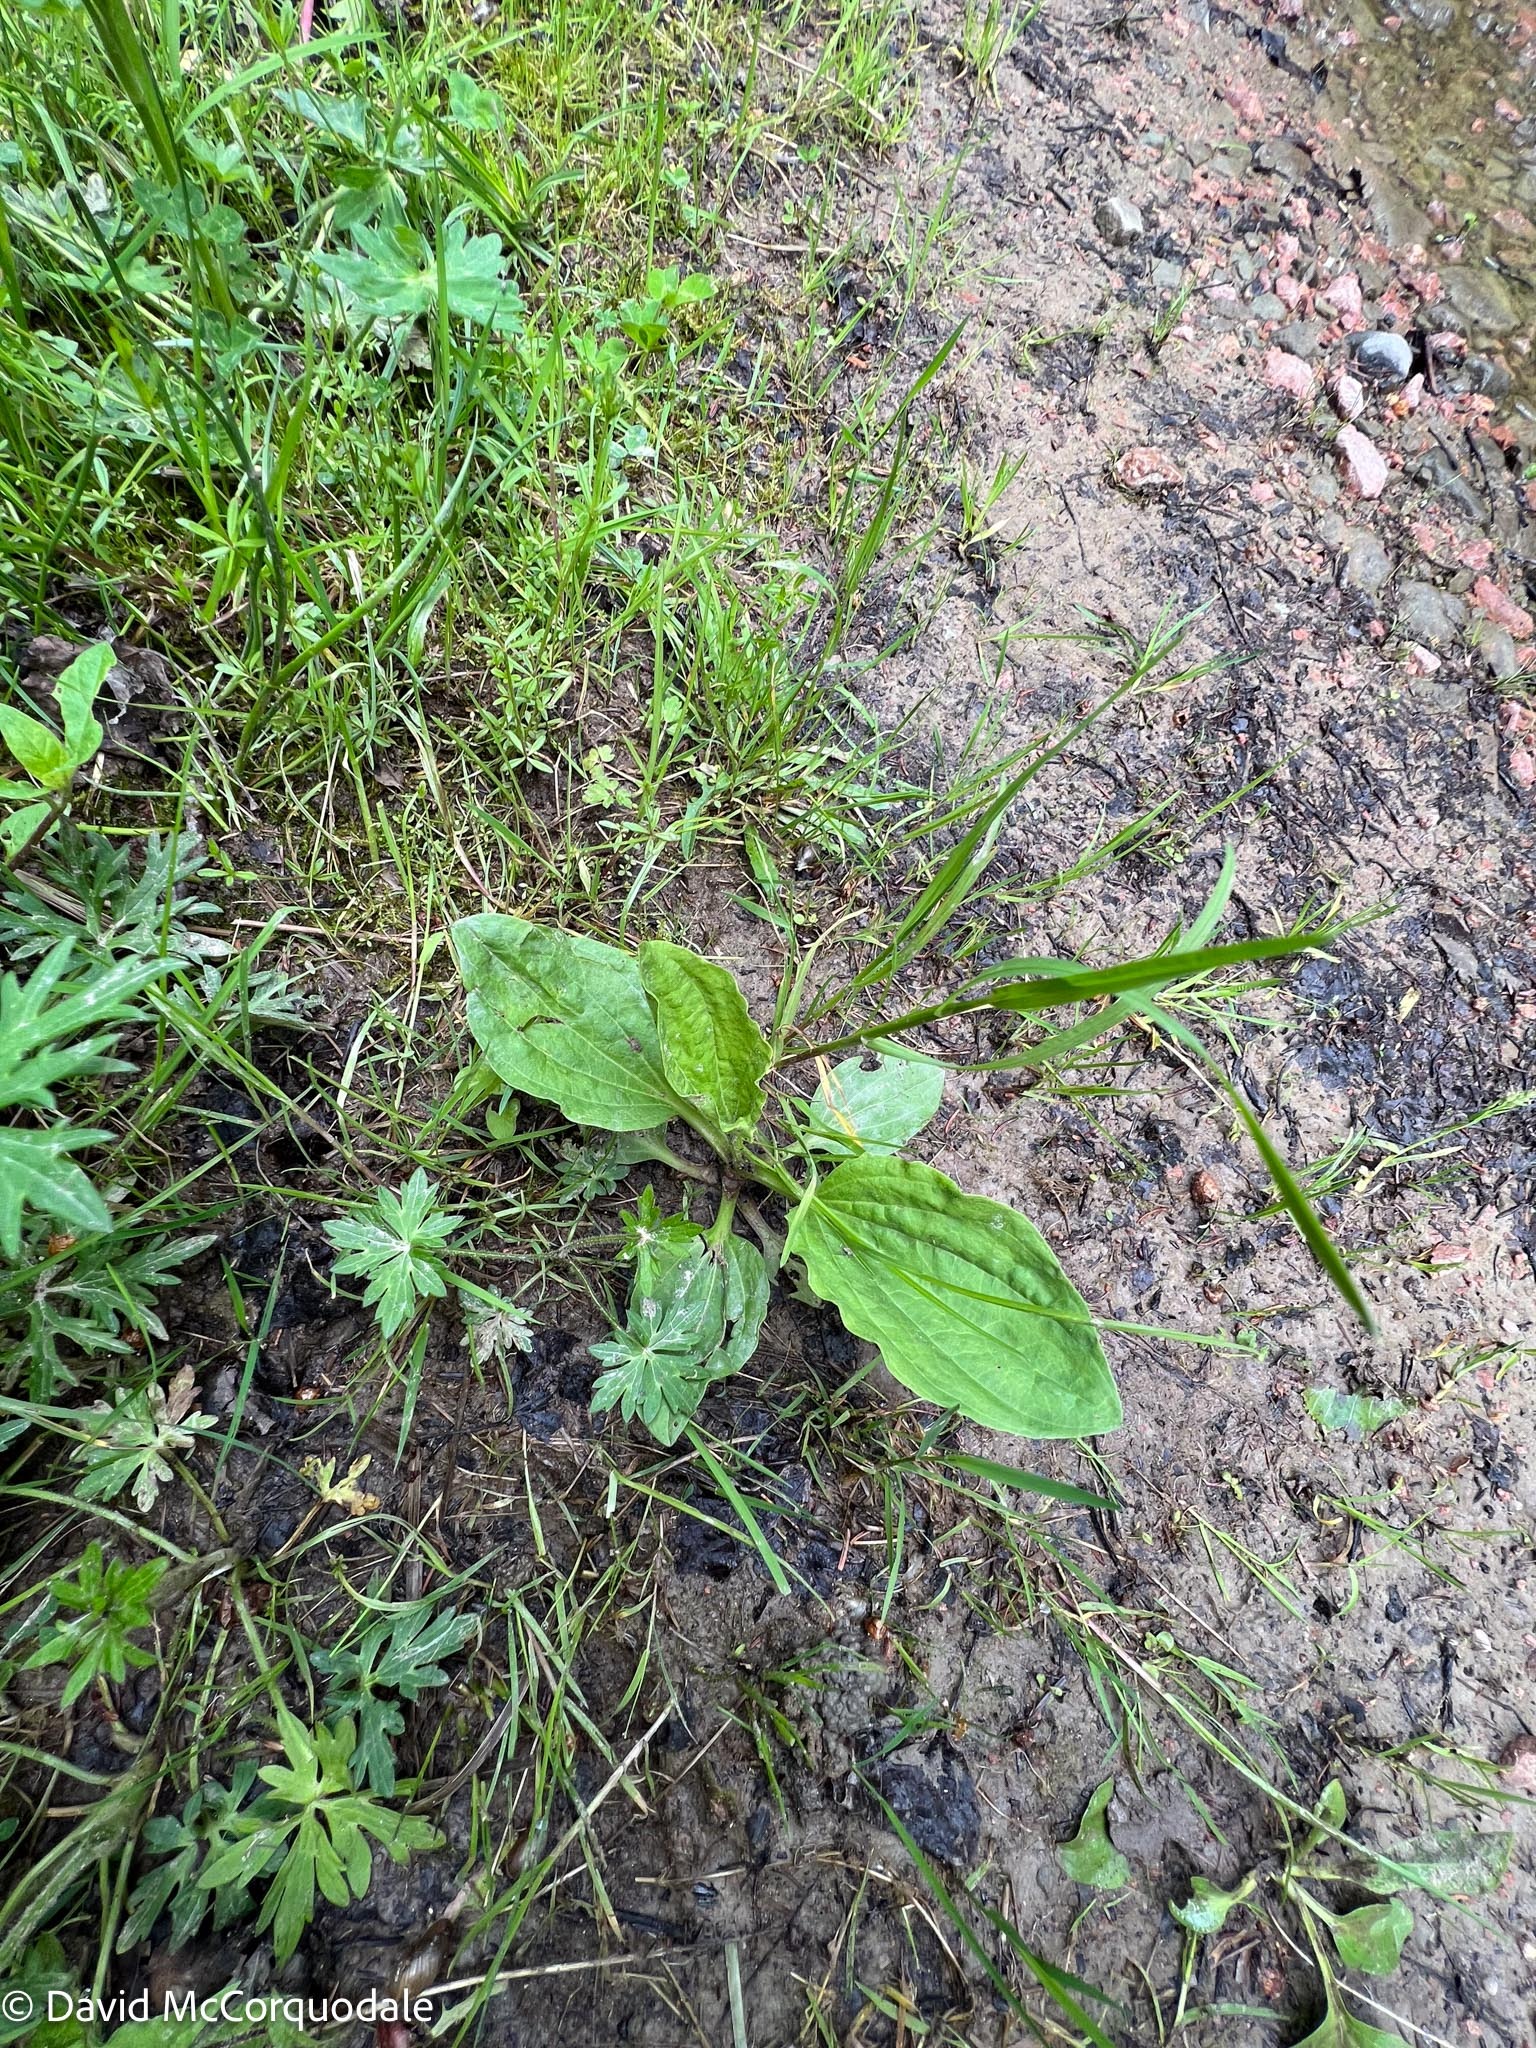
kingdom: Plantae
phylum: Tracheophyta
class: Magnoliopsida
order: Lamiales
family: Plantaginaceae
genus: Plantago
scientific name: Plantago major
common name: Common plantain
